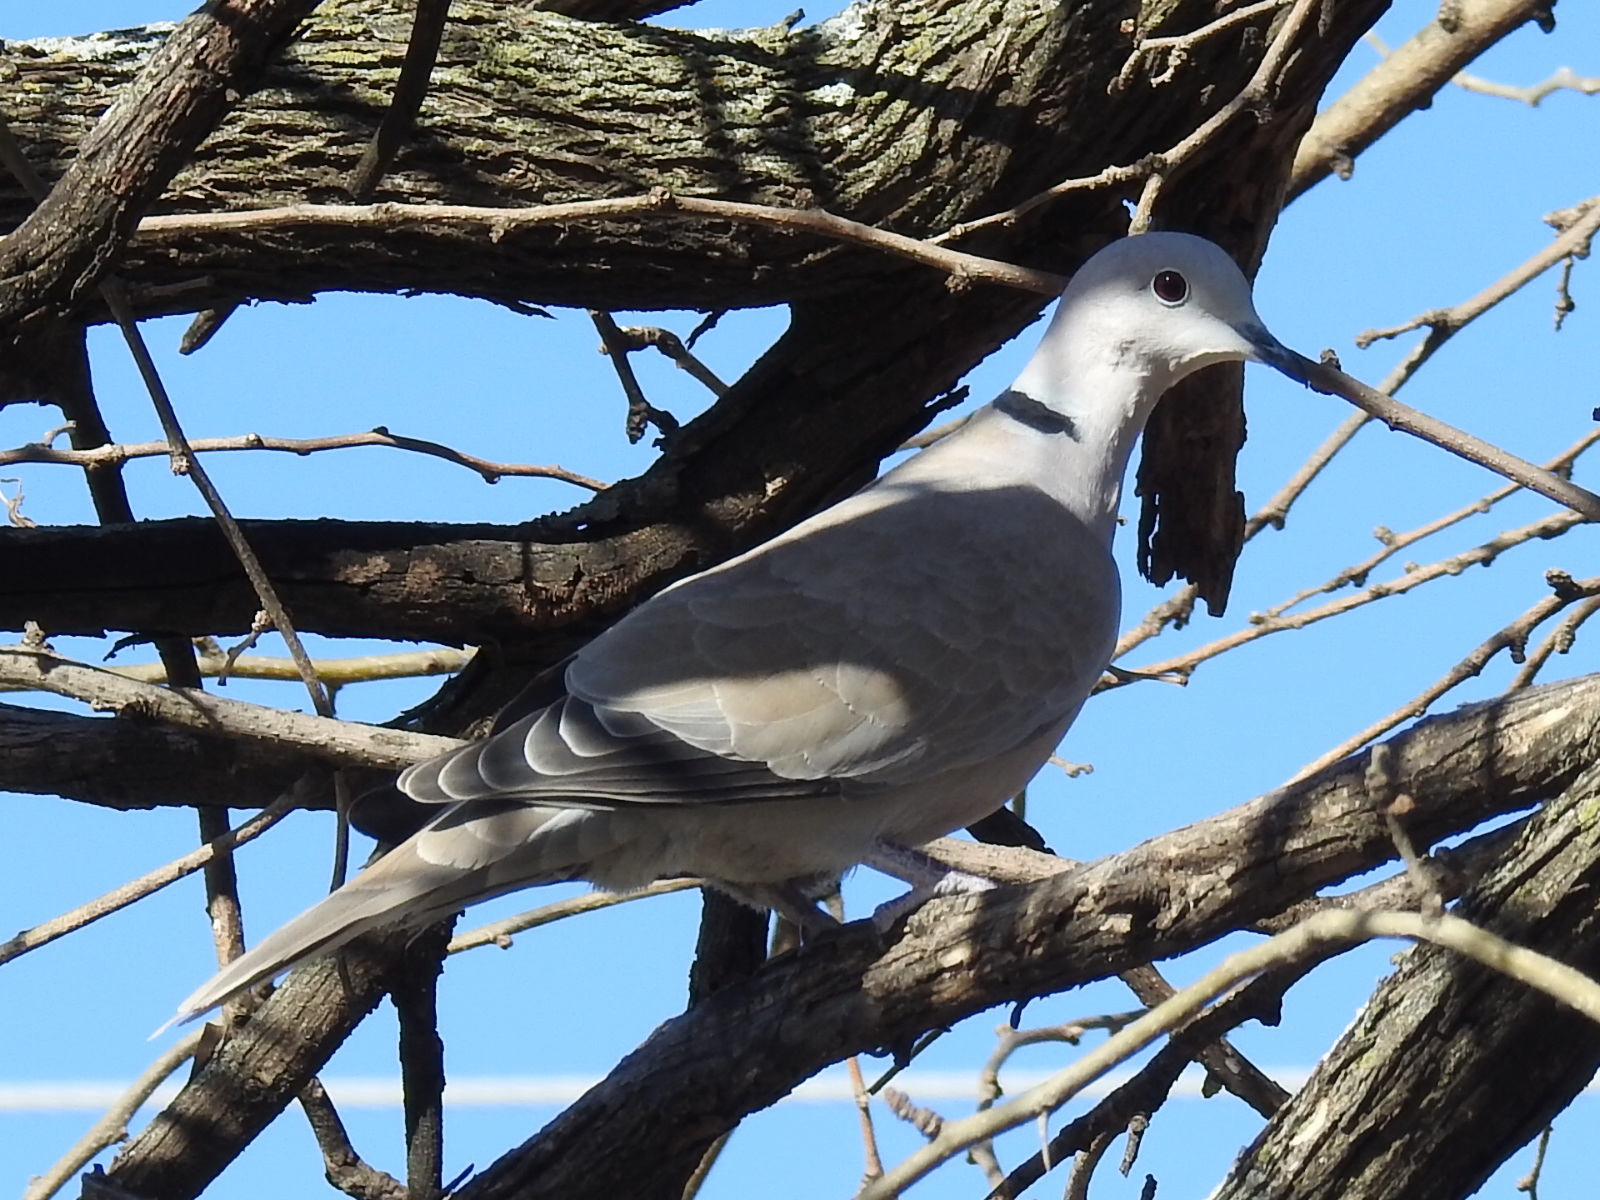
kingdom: Animalia
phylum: Chordata
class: Aves
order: Columbiformes
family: Columbidae
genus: Streptopelia
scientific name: Streptopelia decaocto
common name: Eurasian collared dove
